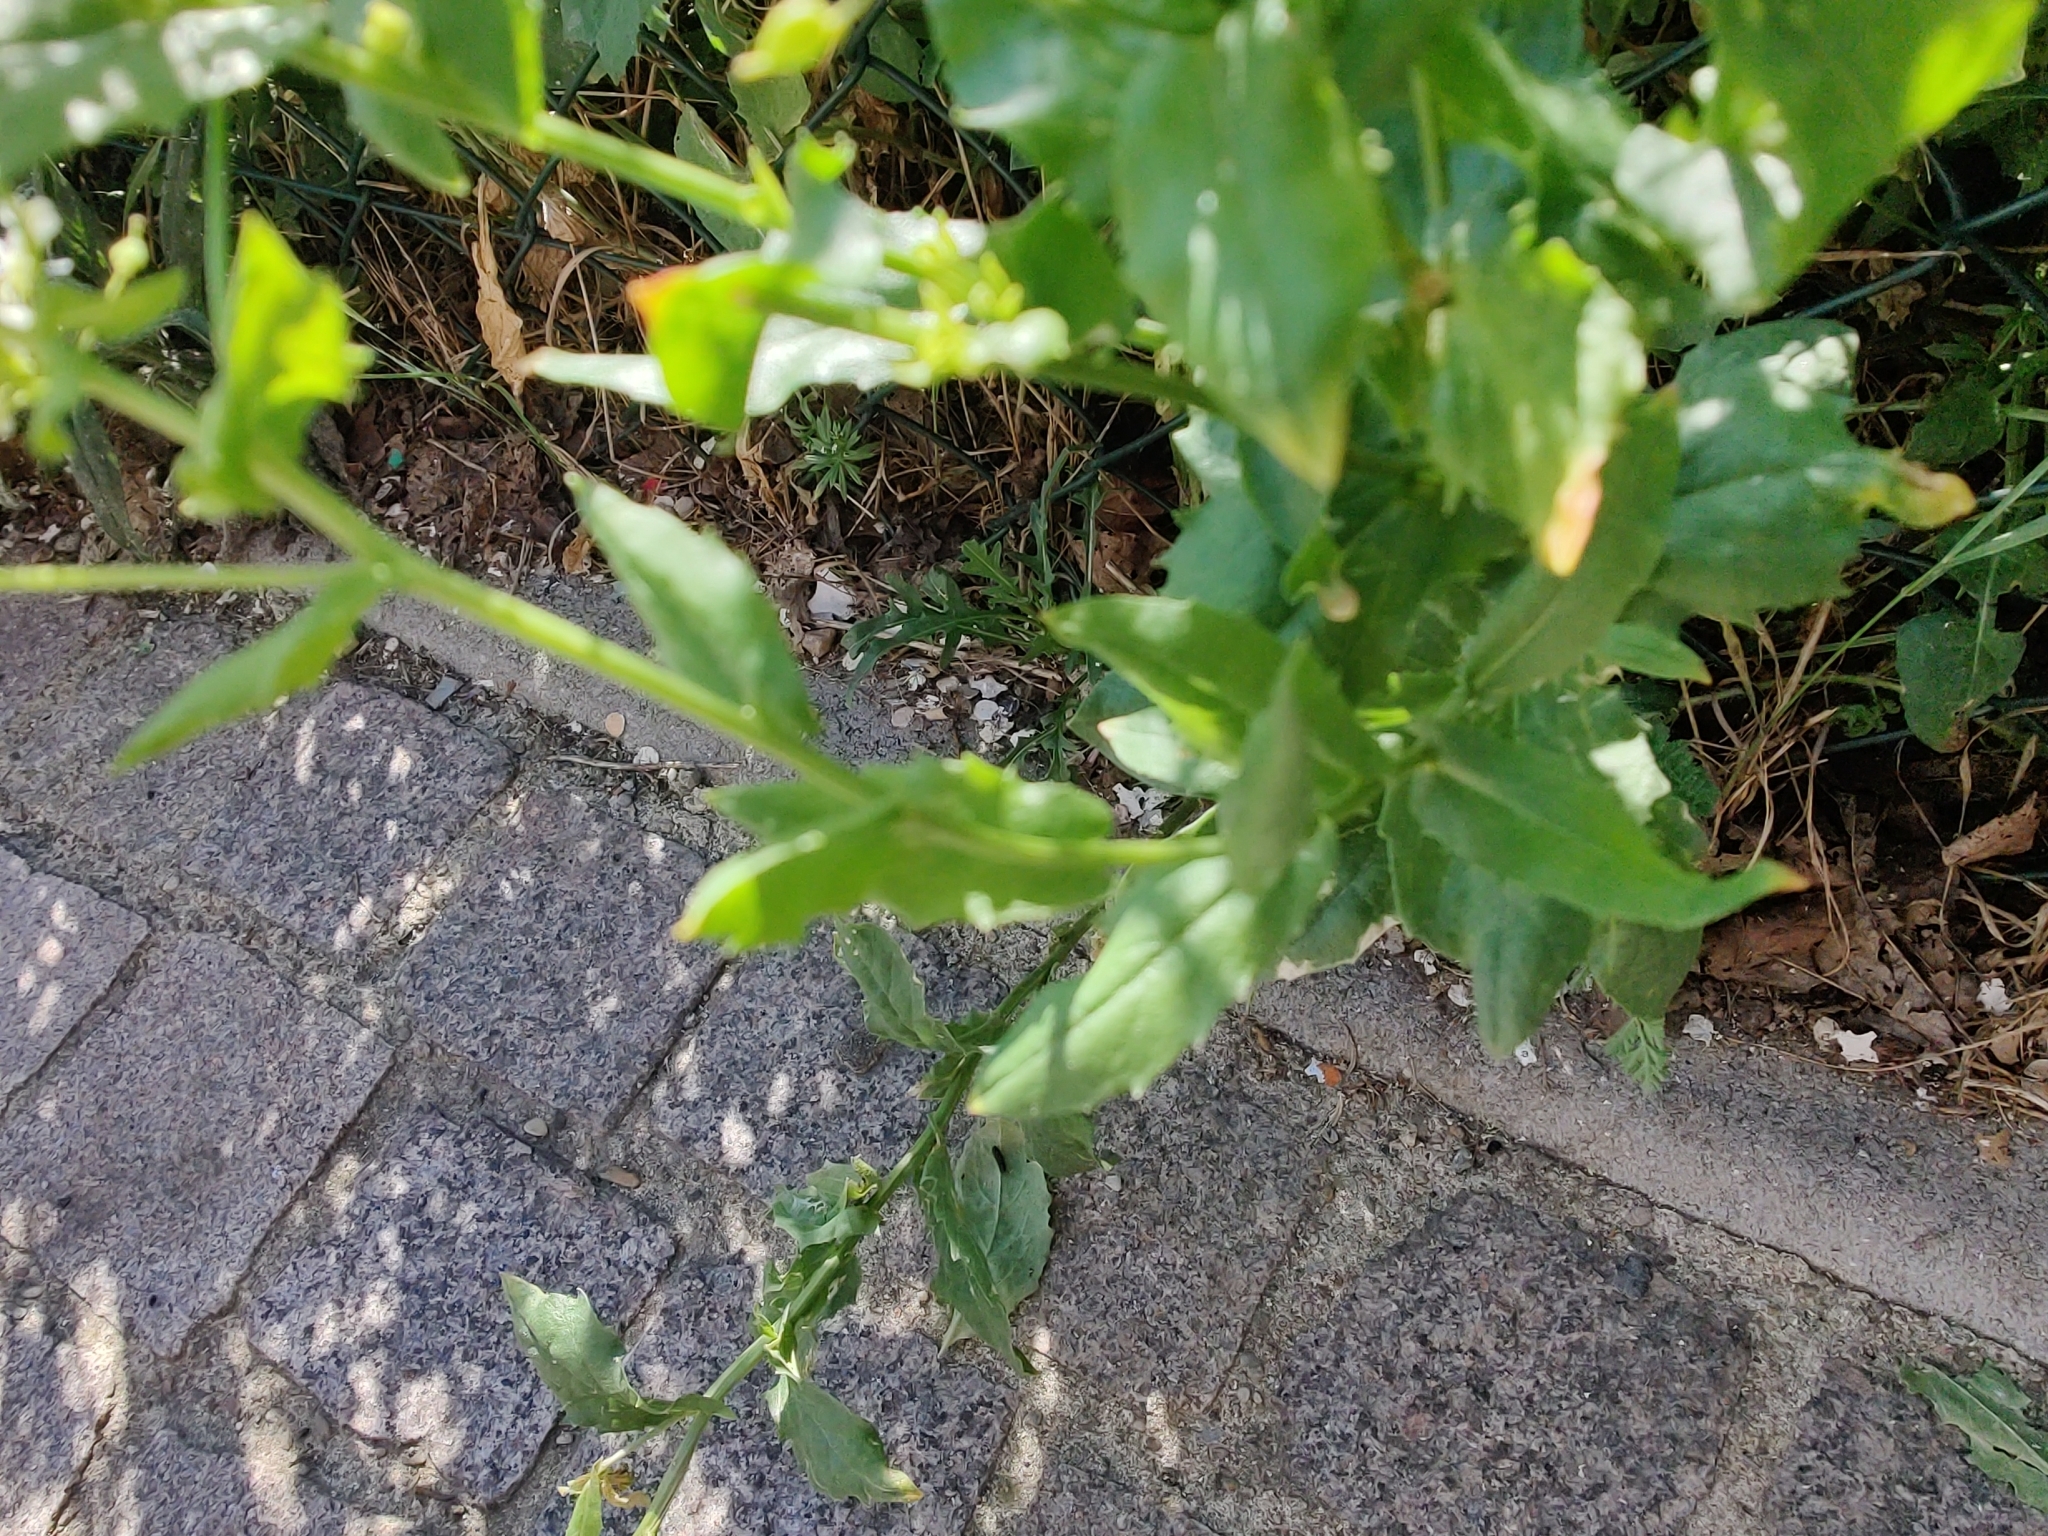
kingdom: Plantae
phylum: Tracheophyta
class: Magnoliopsida
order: Brassicales
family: Brassicaceae
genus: Lepidium
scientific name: Lepidium draba
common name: Hoary cress
